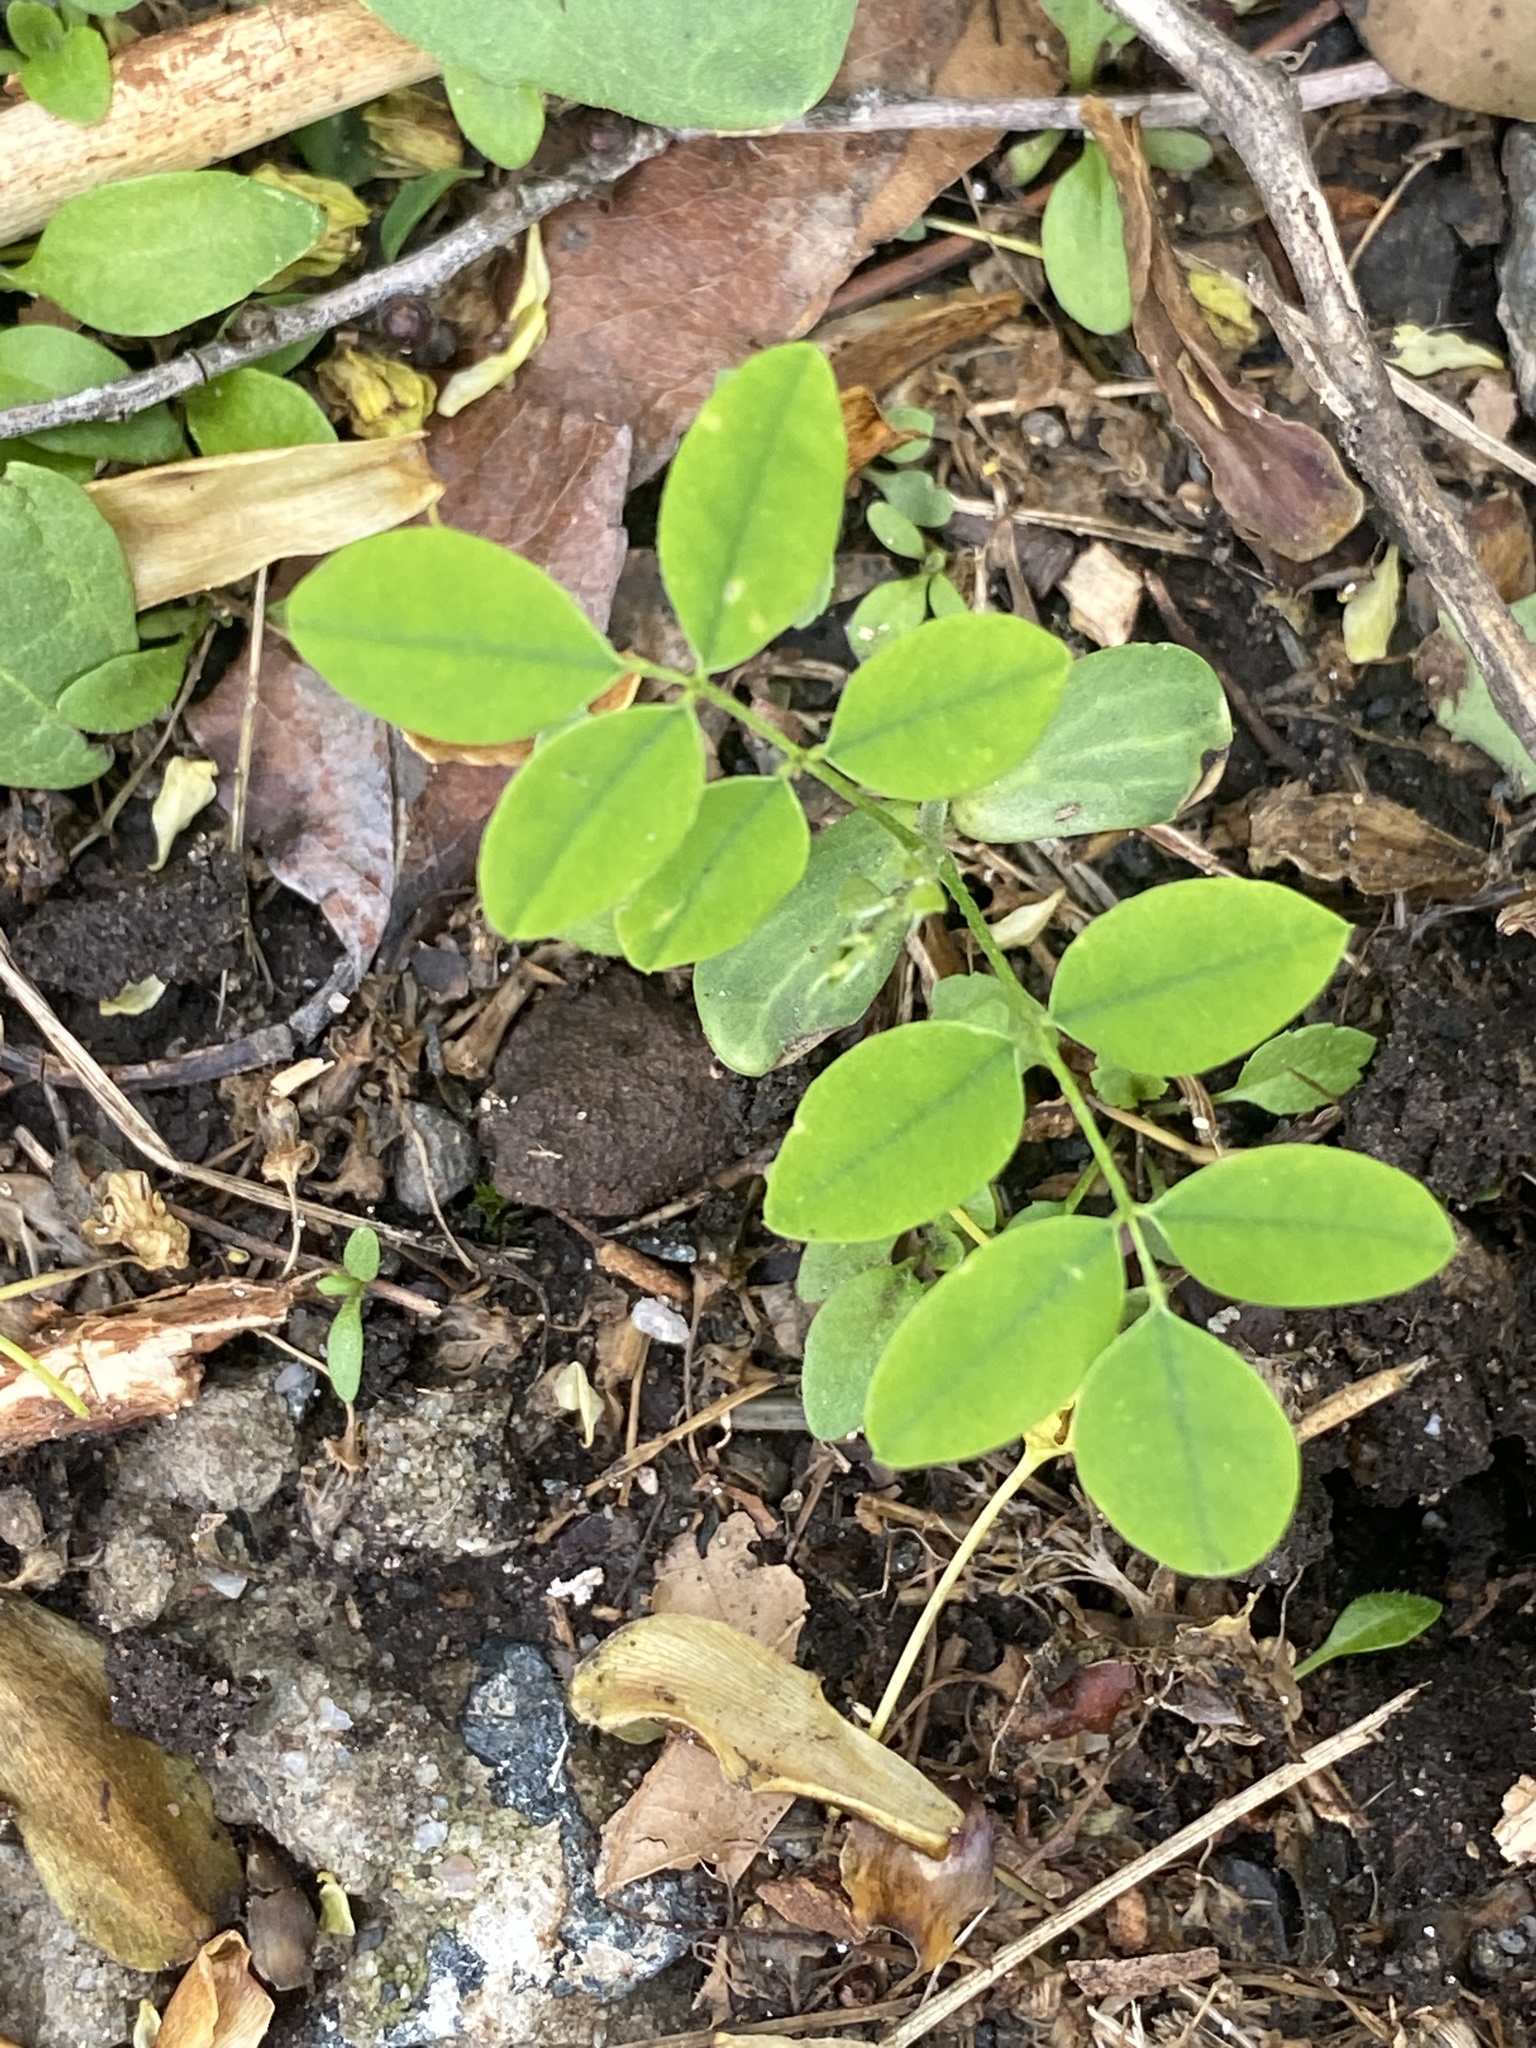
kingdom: Plantae
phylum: Tracheophyta
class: Magnoliopsida
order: Fabales
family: Fabaceae
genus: Robinia
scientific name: Robinia pseudoacacia
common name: Black locust
